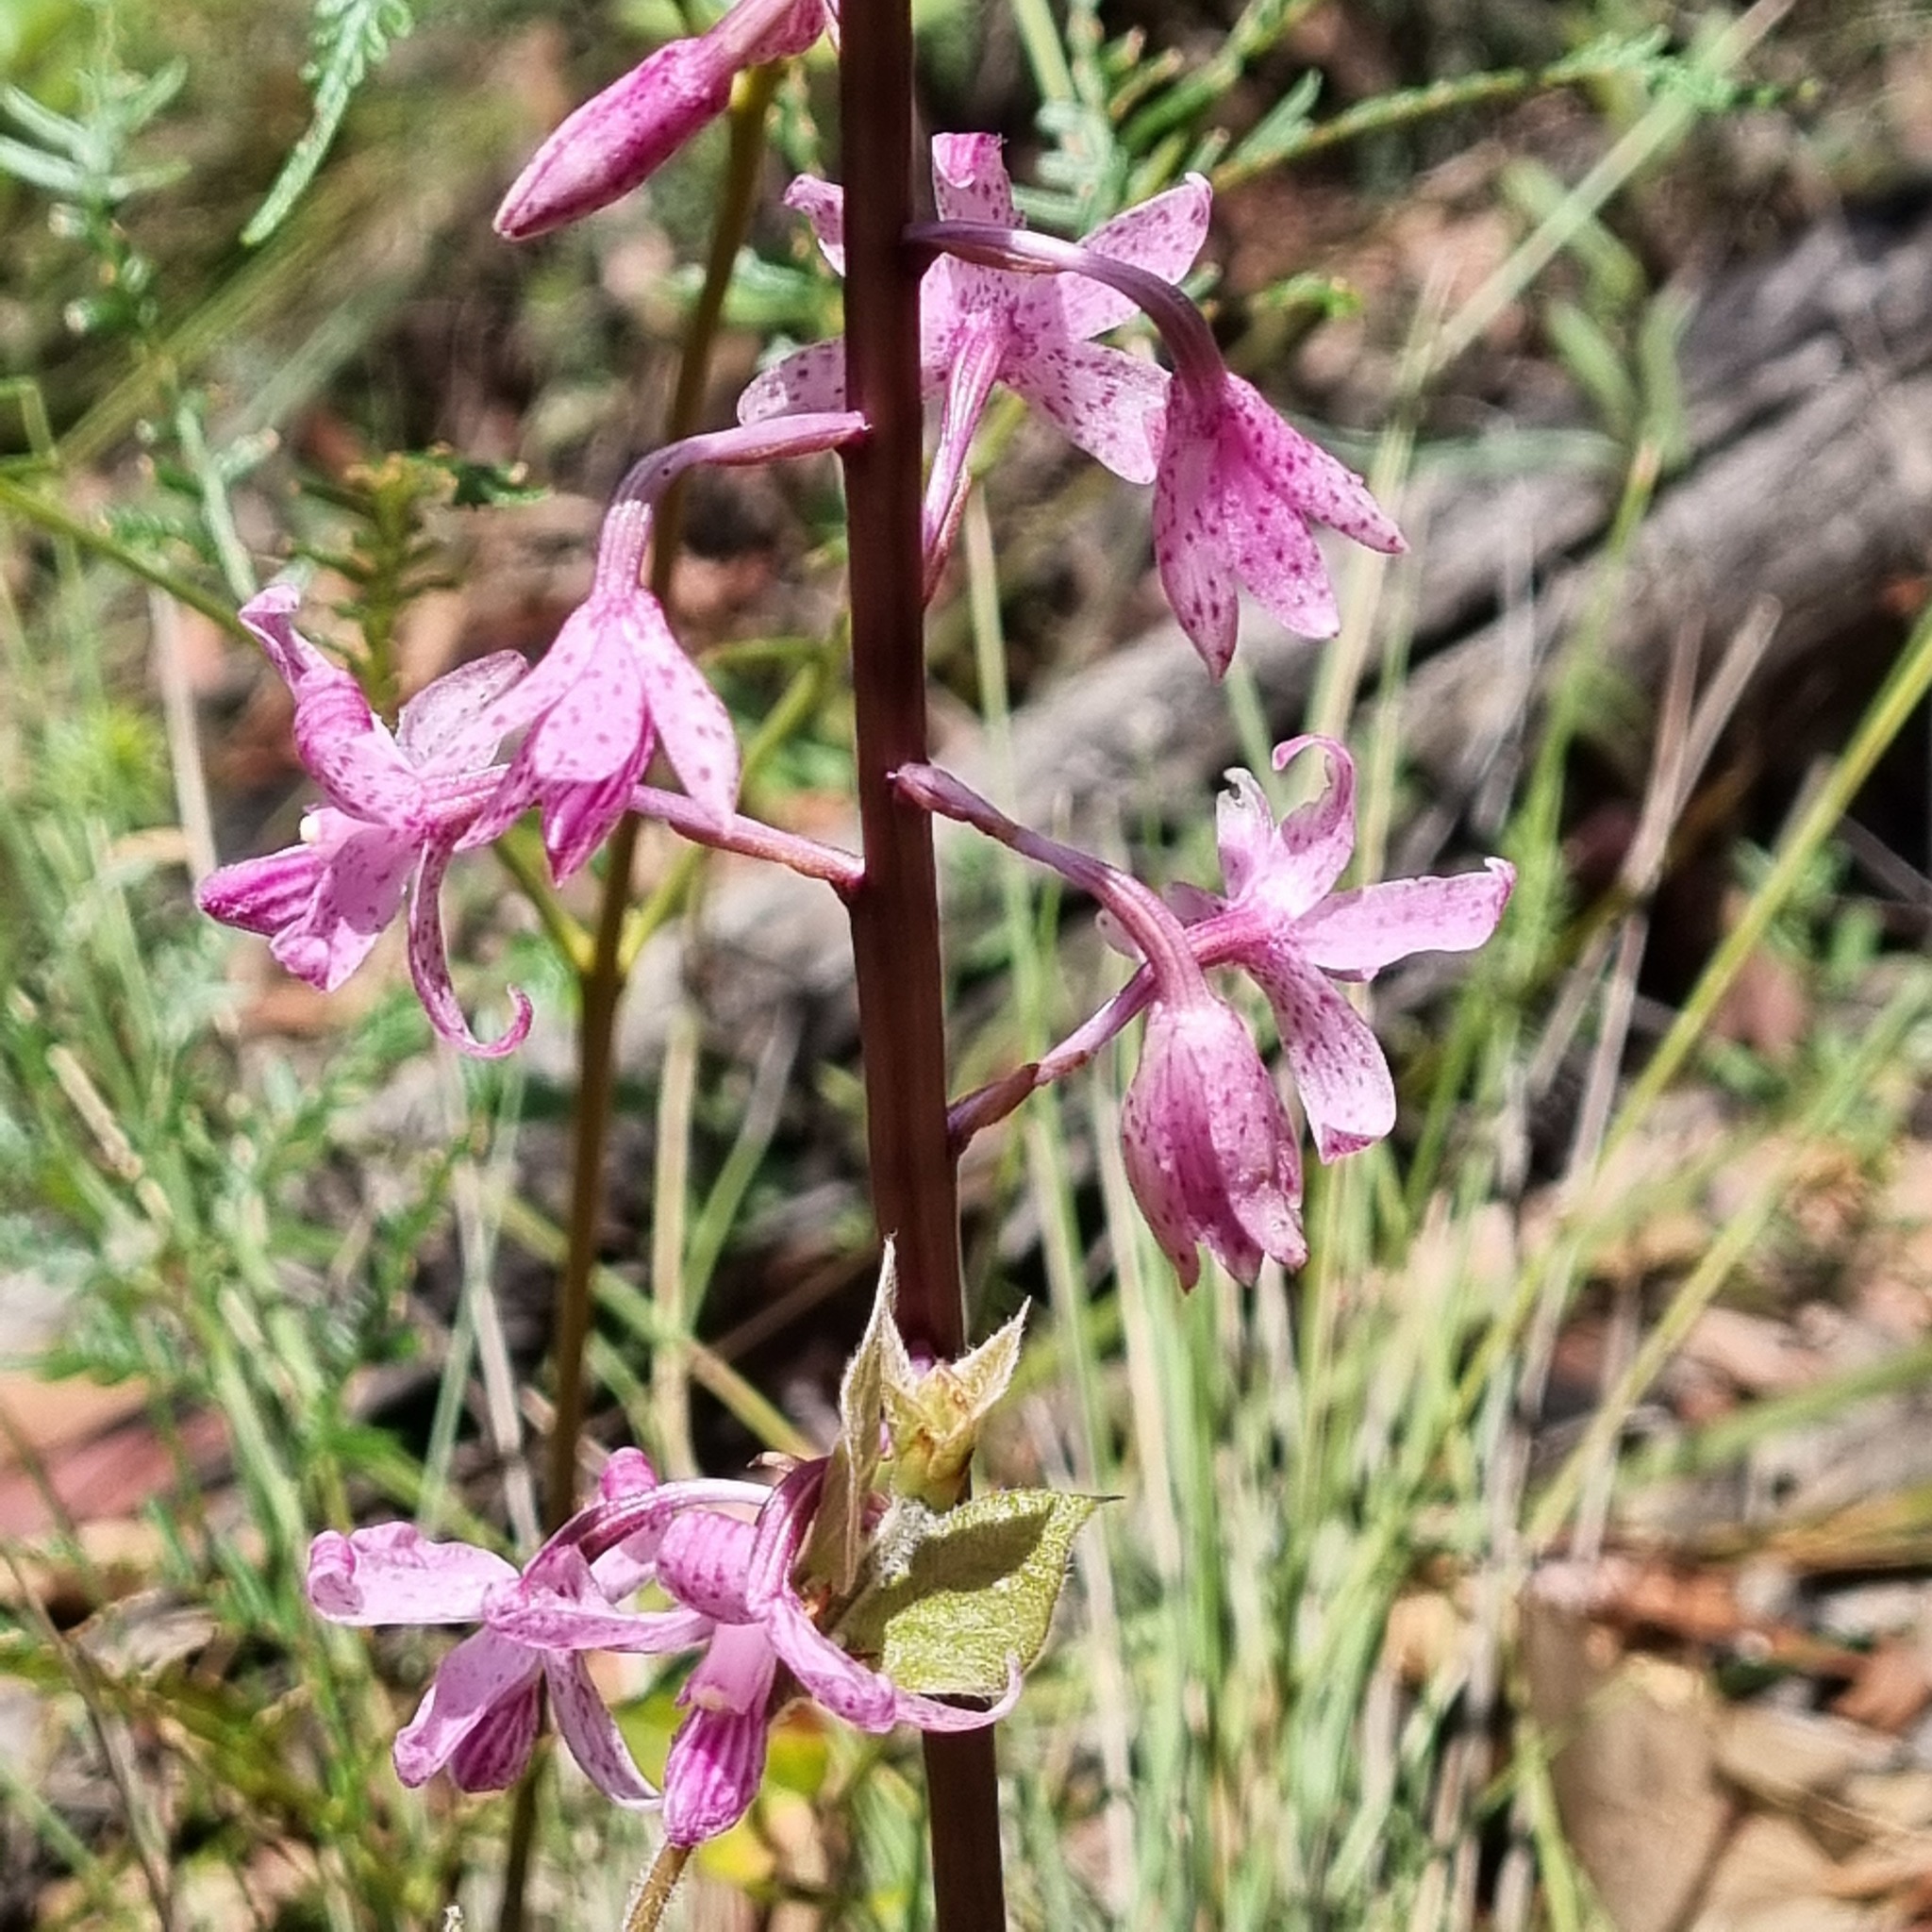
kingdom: Plantae
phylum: Tracheophyta
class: Liliopsida
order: Asparagales
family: Orchidaceae
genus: Dipodium
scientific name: Dipodium roseum
